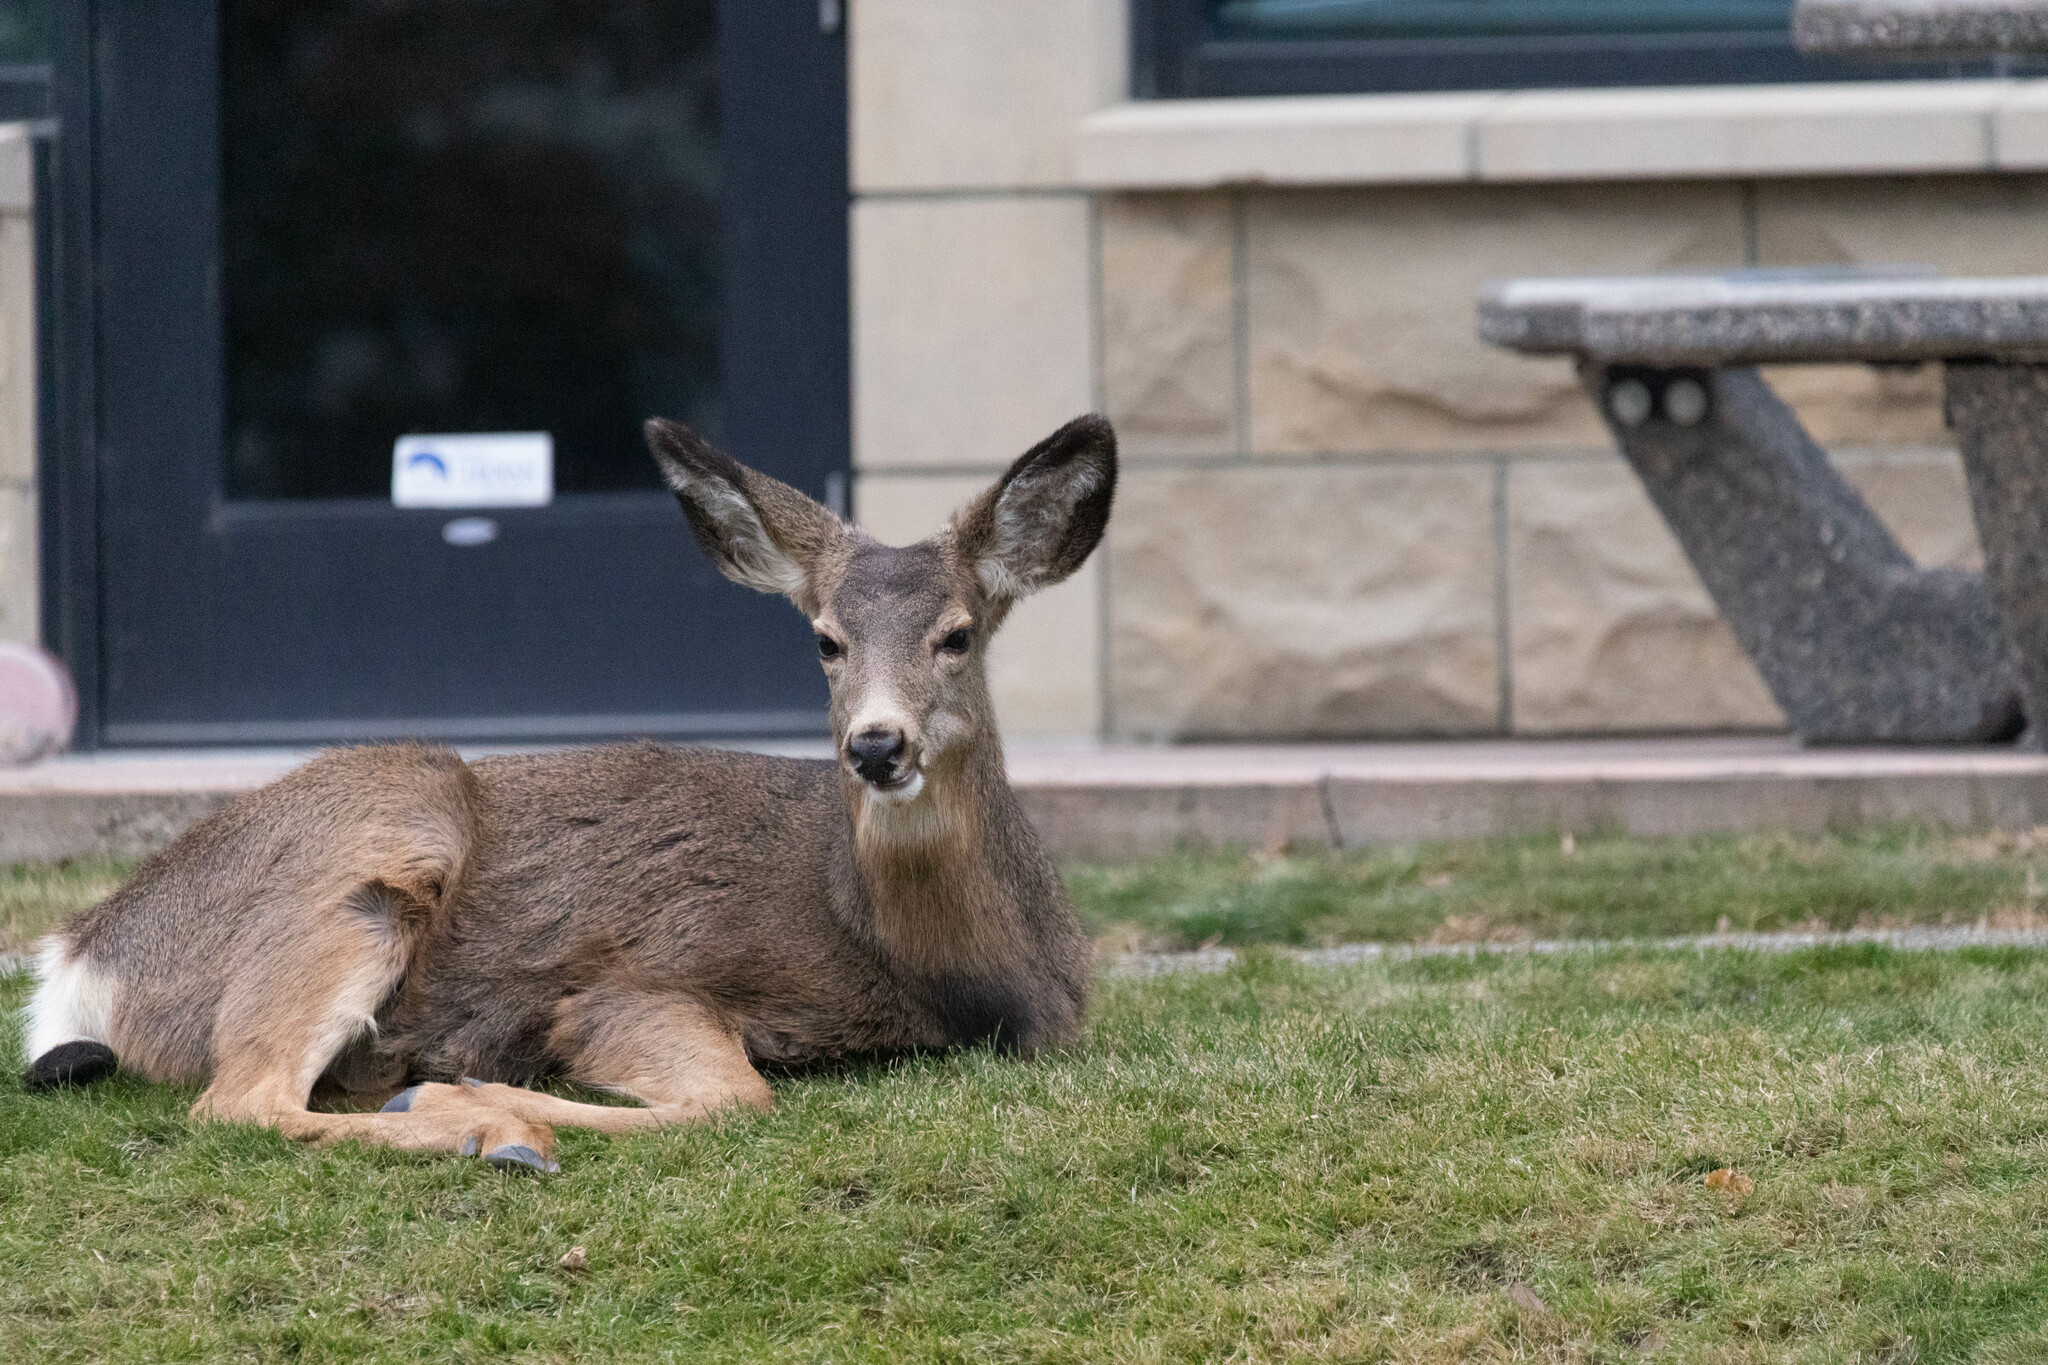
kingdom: Animalia
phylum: Chordata
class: Mammalia
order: Artiodactyla
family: Cervidae
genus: Odocoileus
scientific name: Odocoileus hemionus
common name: Mule deer
